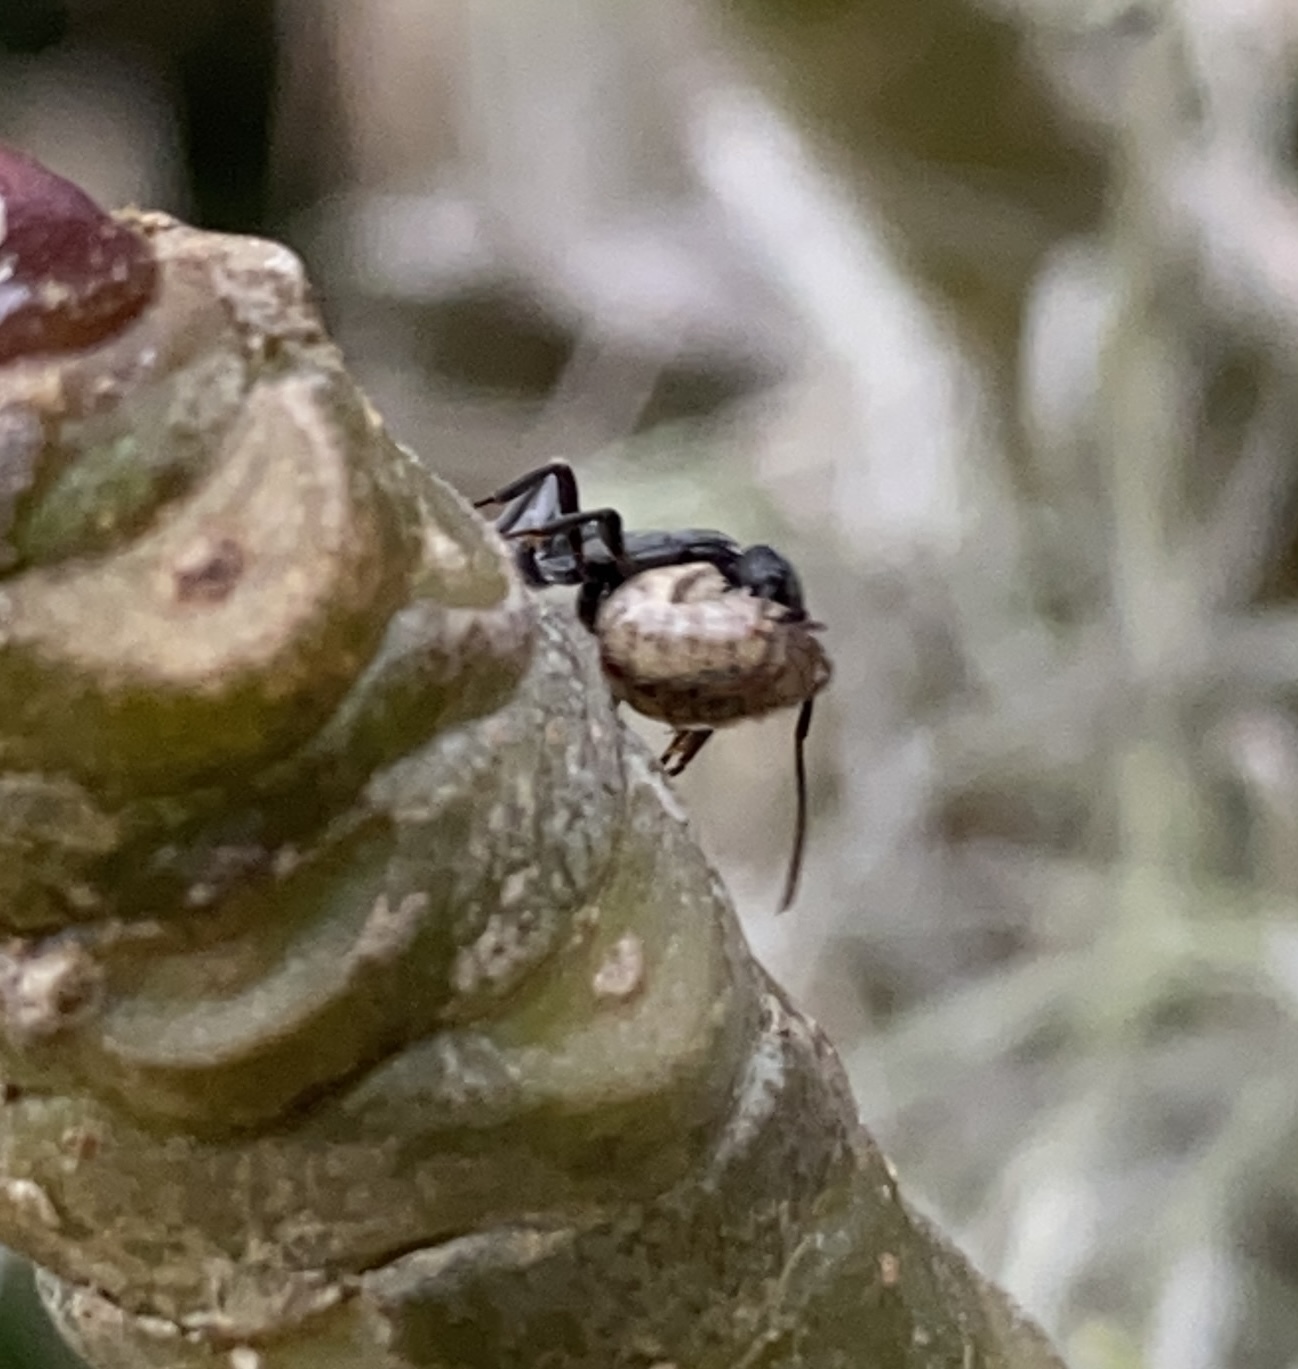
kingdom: Animalia
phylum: Arthropoda
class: Malacostraca
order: Isopoda
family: Armadillidiidae
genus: Armadillidium
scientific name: Armadillidium vulgare
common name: Common pill woodlouse
